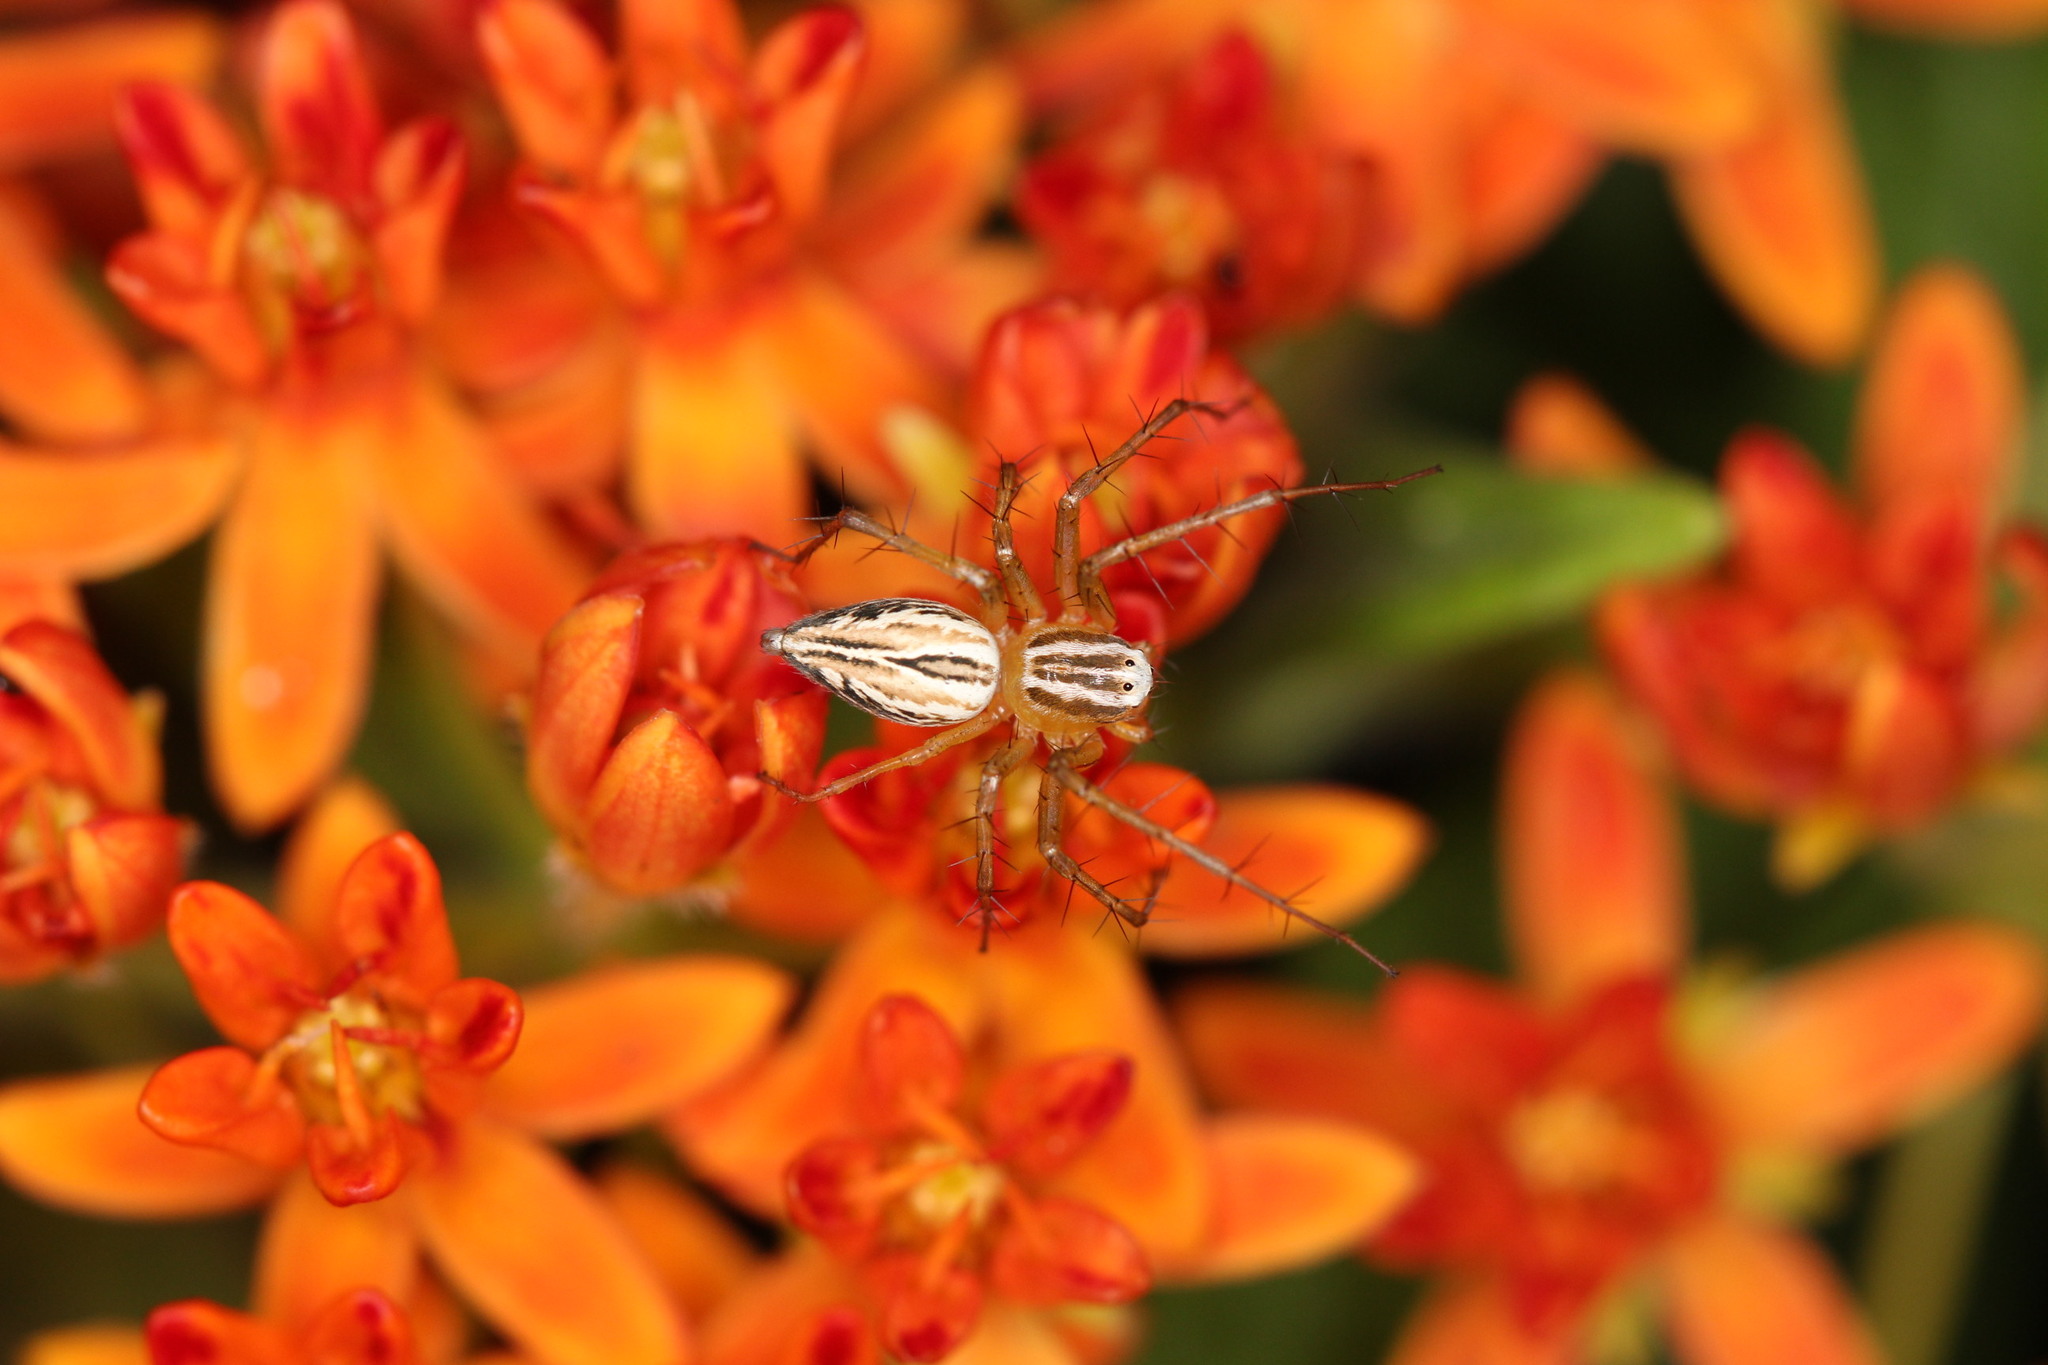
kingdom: Animalia
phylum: Arthropoda
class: Arachnida
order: Araneae
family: Oxyopidae
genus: Oxyopes
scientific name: Oxyopes salticus
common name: Lynx spiders
